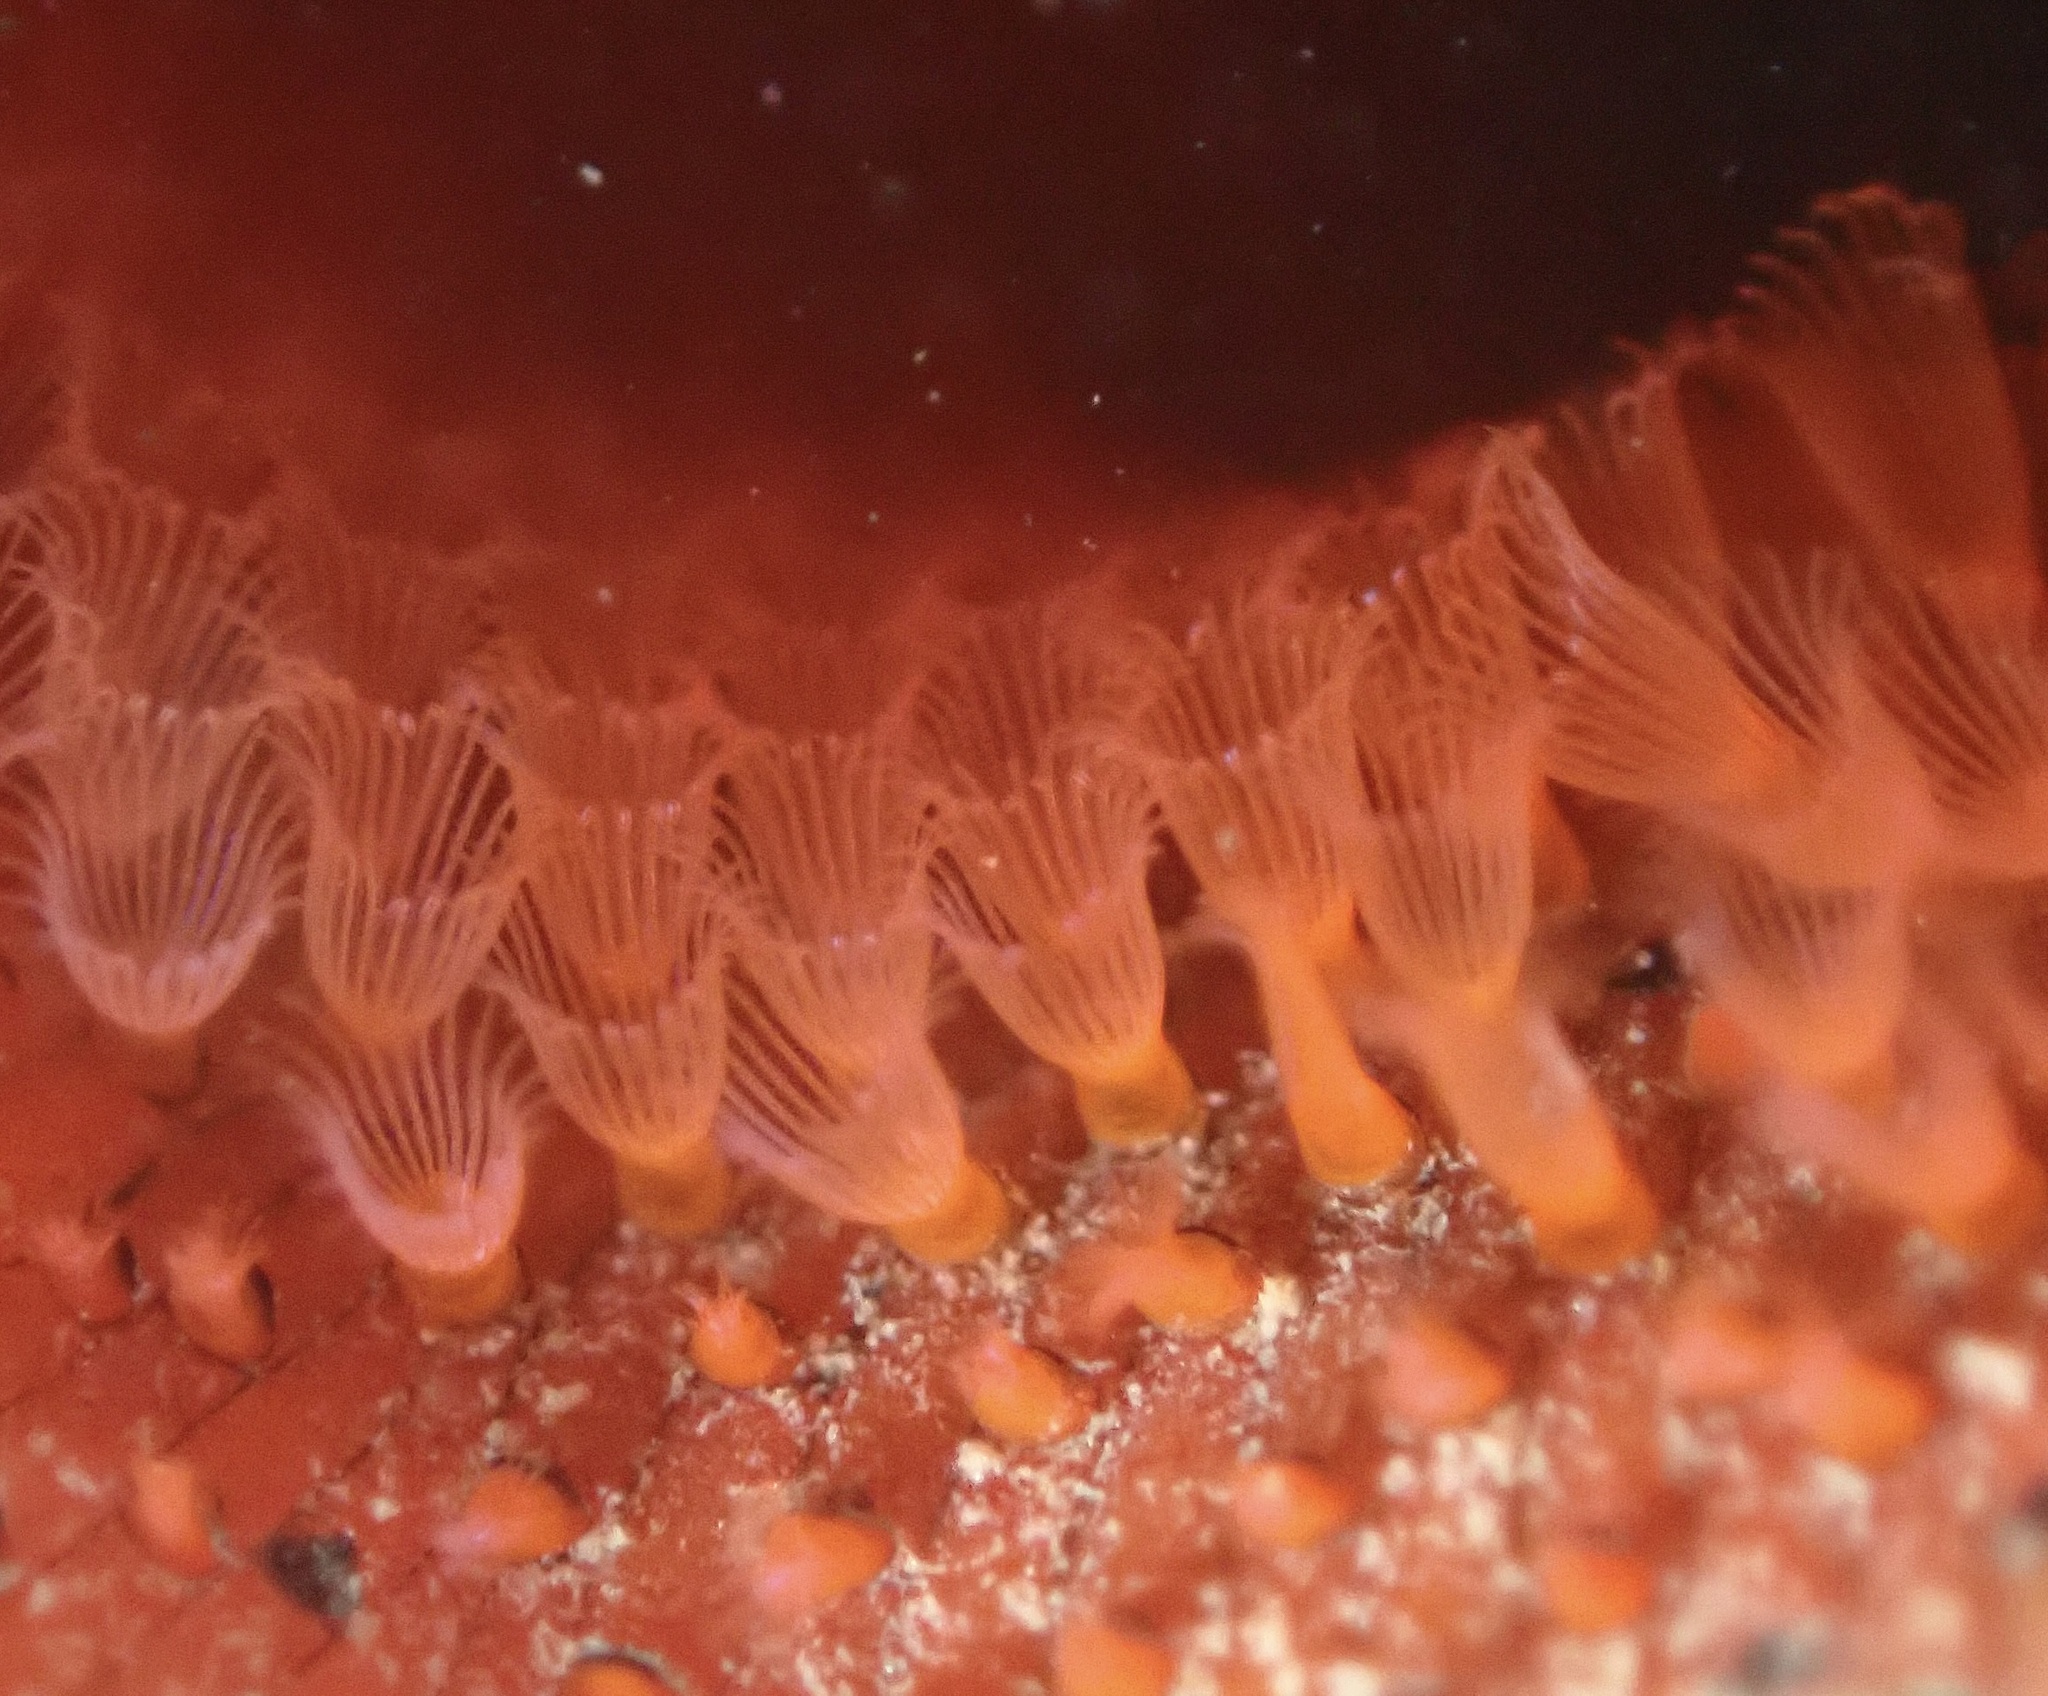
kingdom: Animalia
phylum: Bryozoa
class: Gymnolaemata
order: Cheilostomatida
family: Watersiporidae
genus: Watersipora
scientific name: Watersipora subtorquata
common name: Bryozoan
